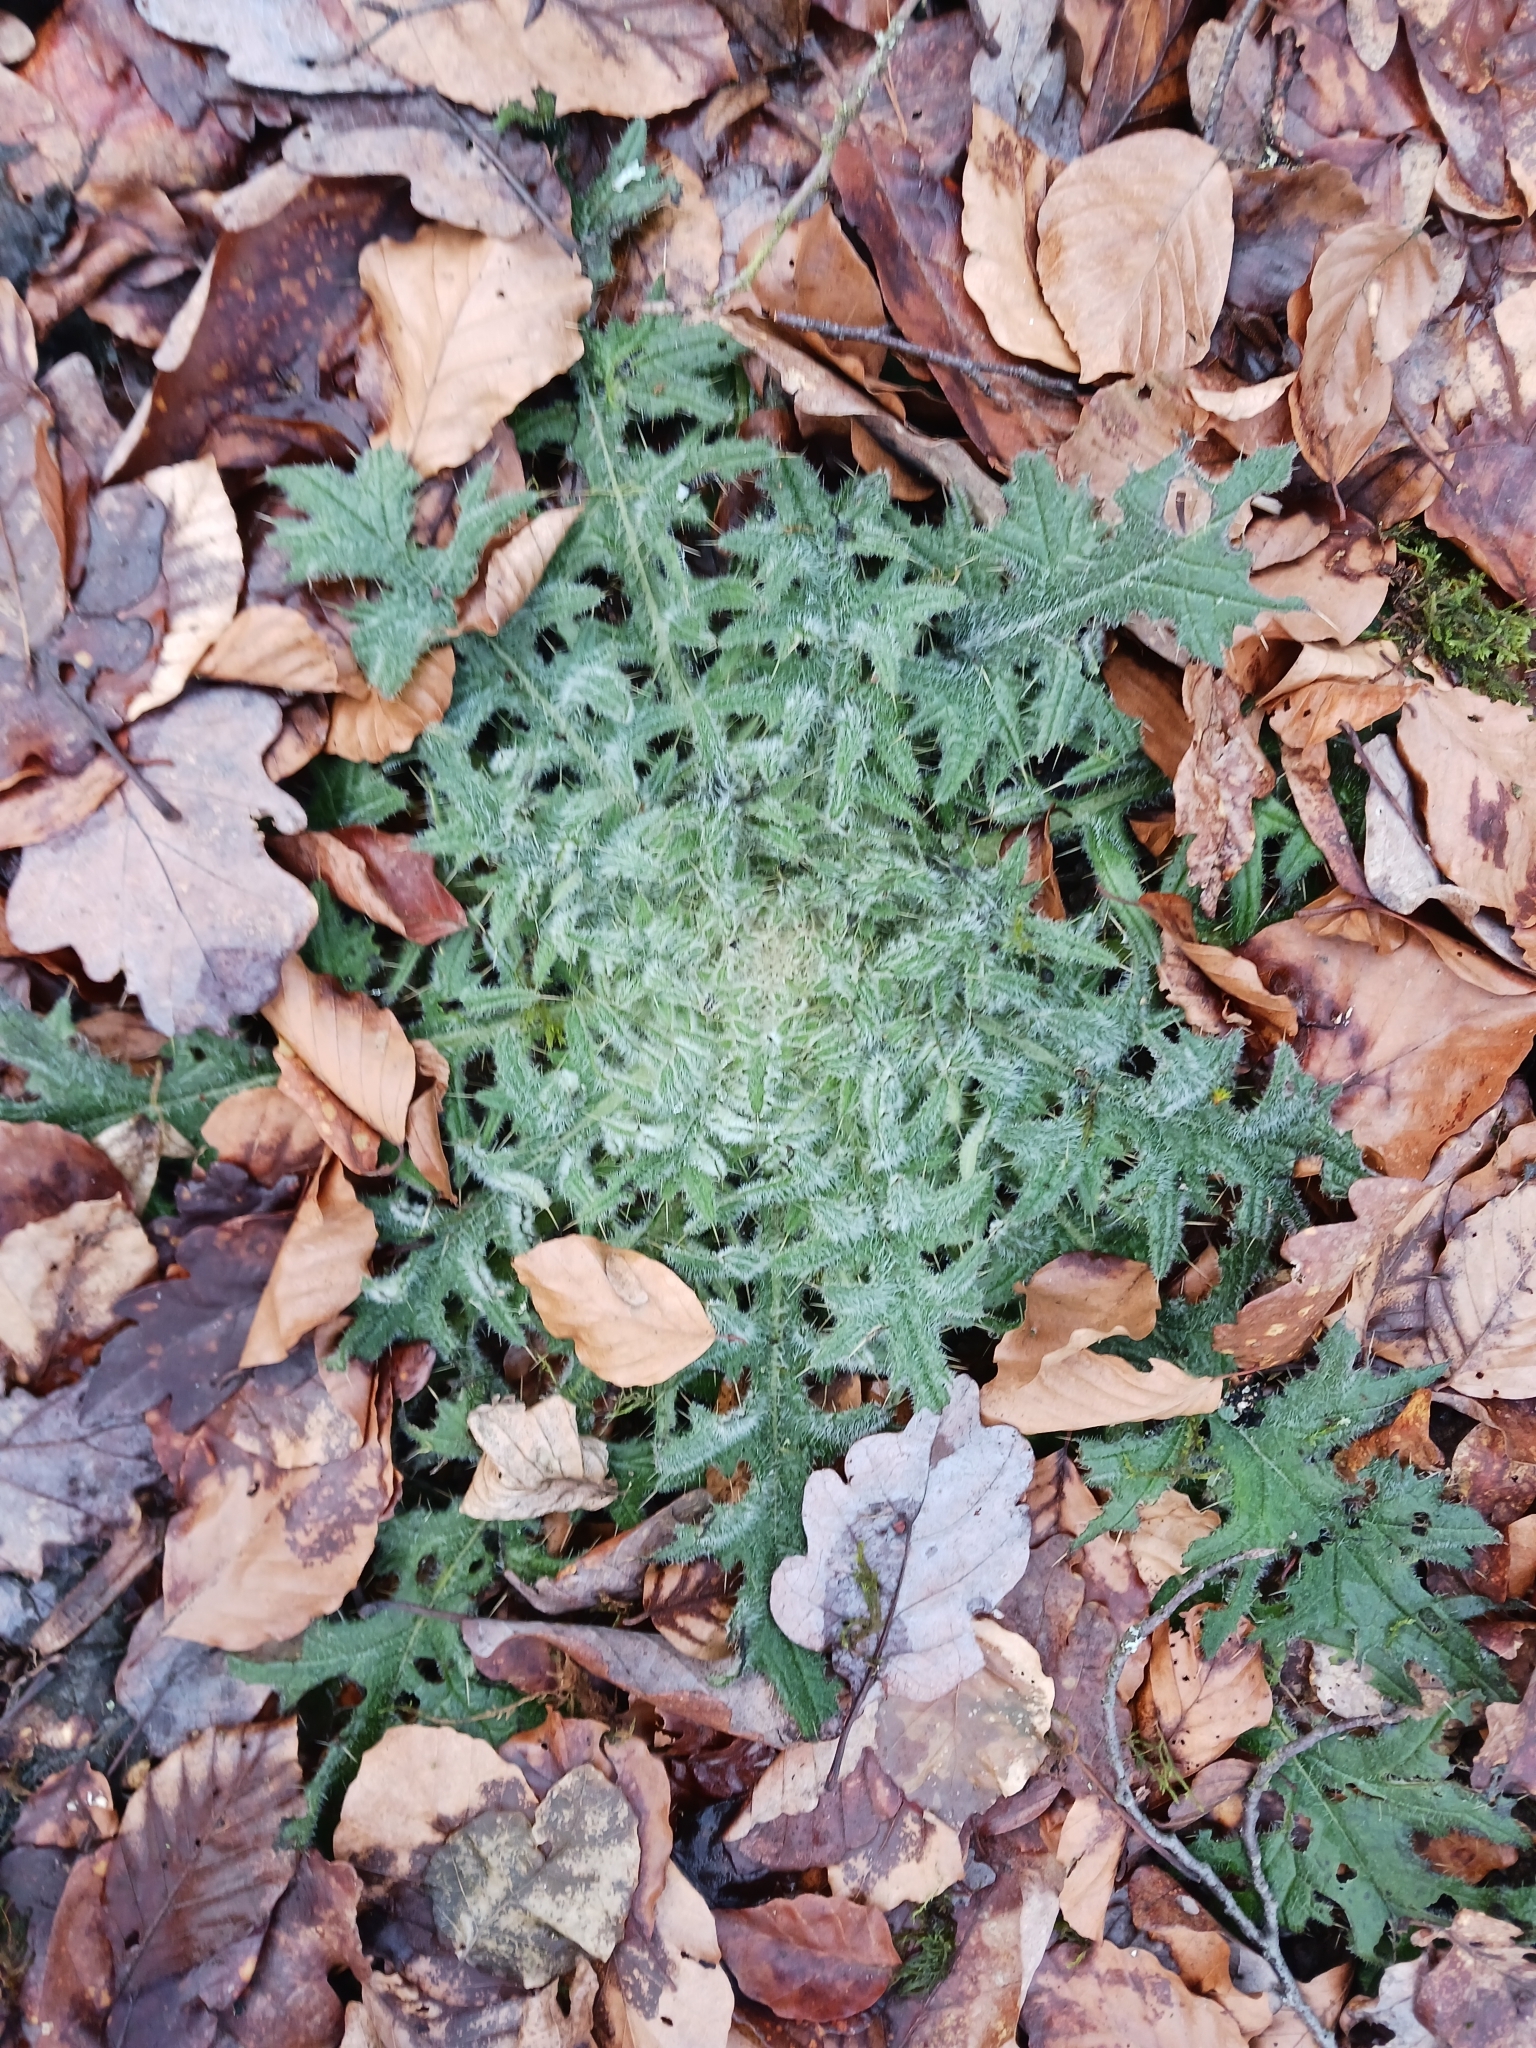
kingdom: Plantae
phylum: Tracheophyta
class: Magnoliopsida
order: Asterales
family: Asteraceae
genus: Cirsium
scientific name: Cirsium vulgare
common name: Bull thistle
